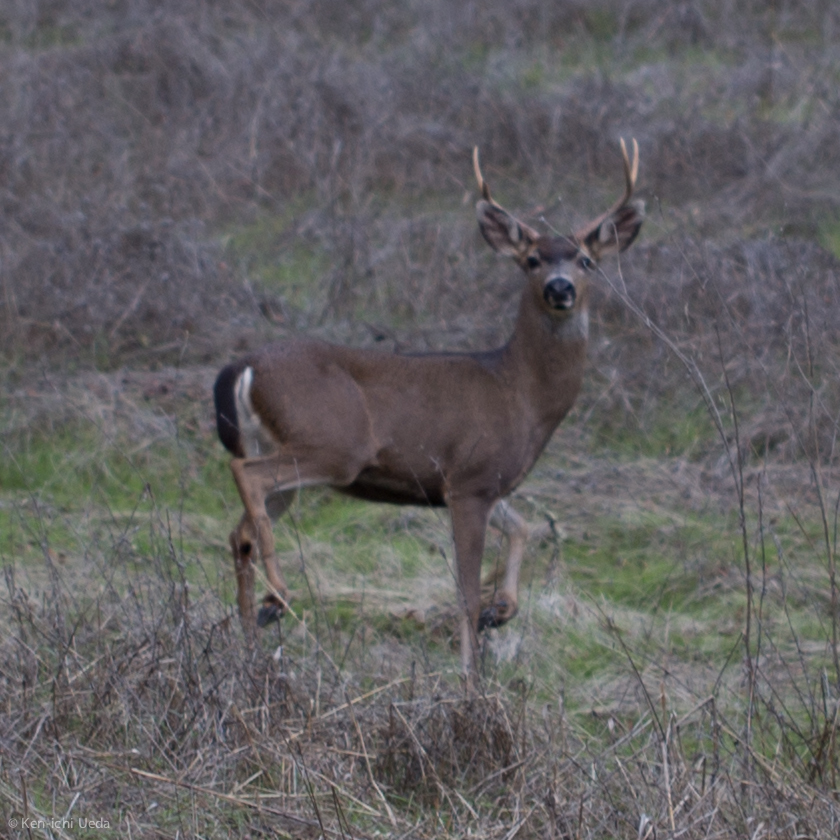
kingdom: Animalia
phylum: Chordata
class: Mammalia
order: Artiodactyla
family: Cervidae
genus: Odocoileus
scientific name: Odocoileus hemionus
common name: Mule deer
